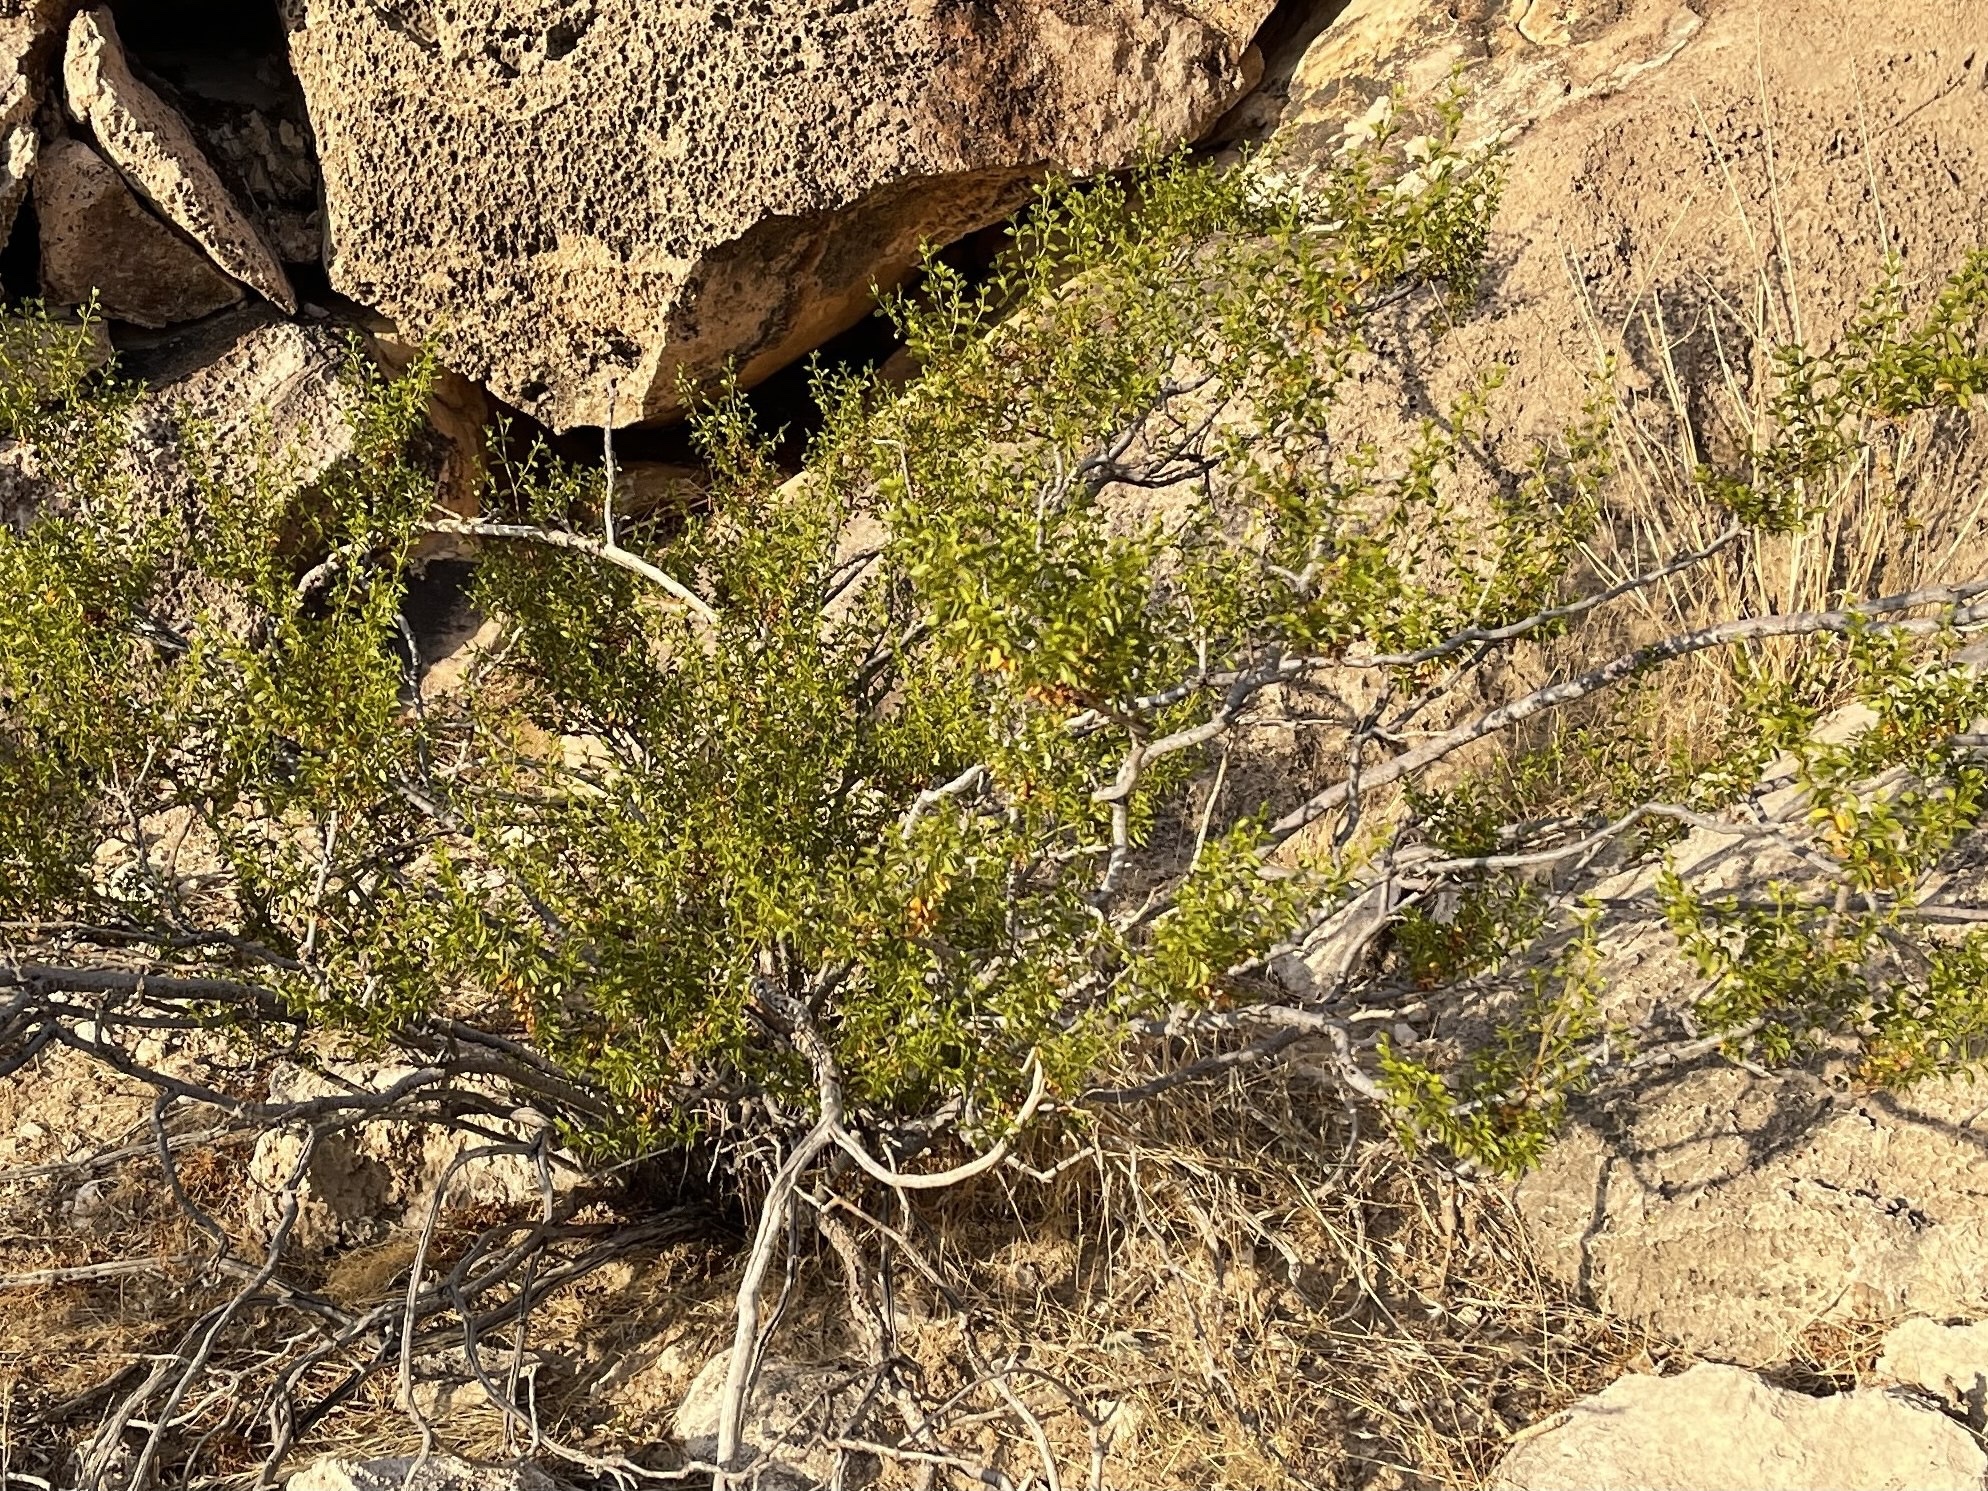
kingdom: Plantae
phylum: Tracheophyta
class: Magnoliopsida
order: Zygophyllales
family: Zygophyllaceae
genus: Larrea
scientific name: Larrea tridentata
